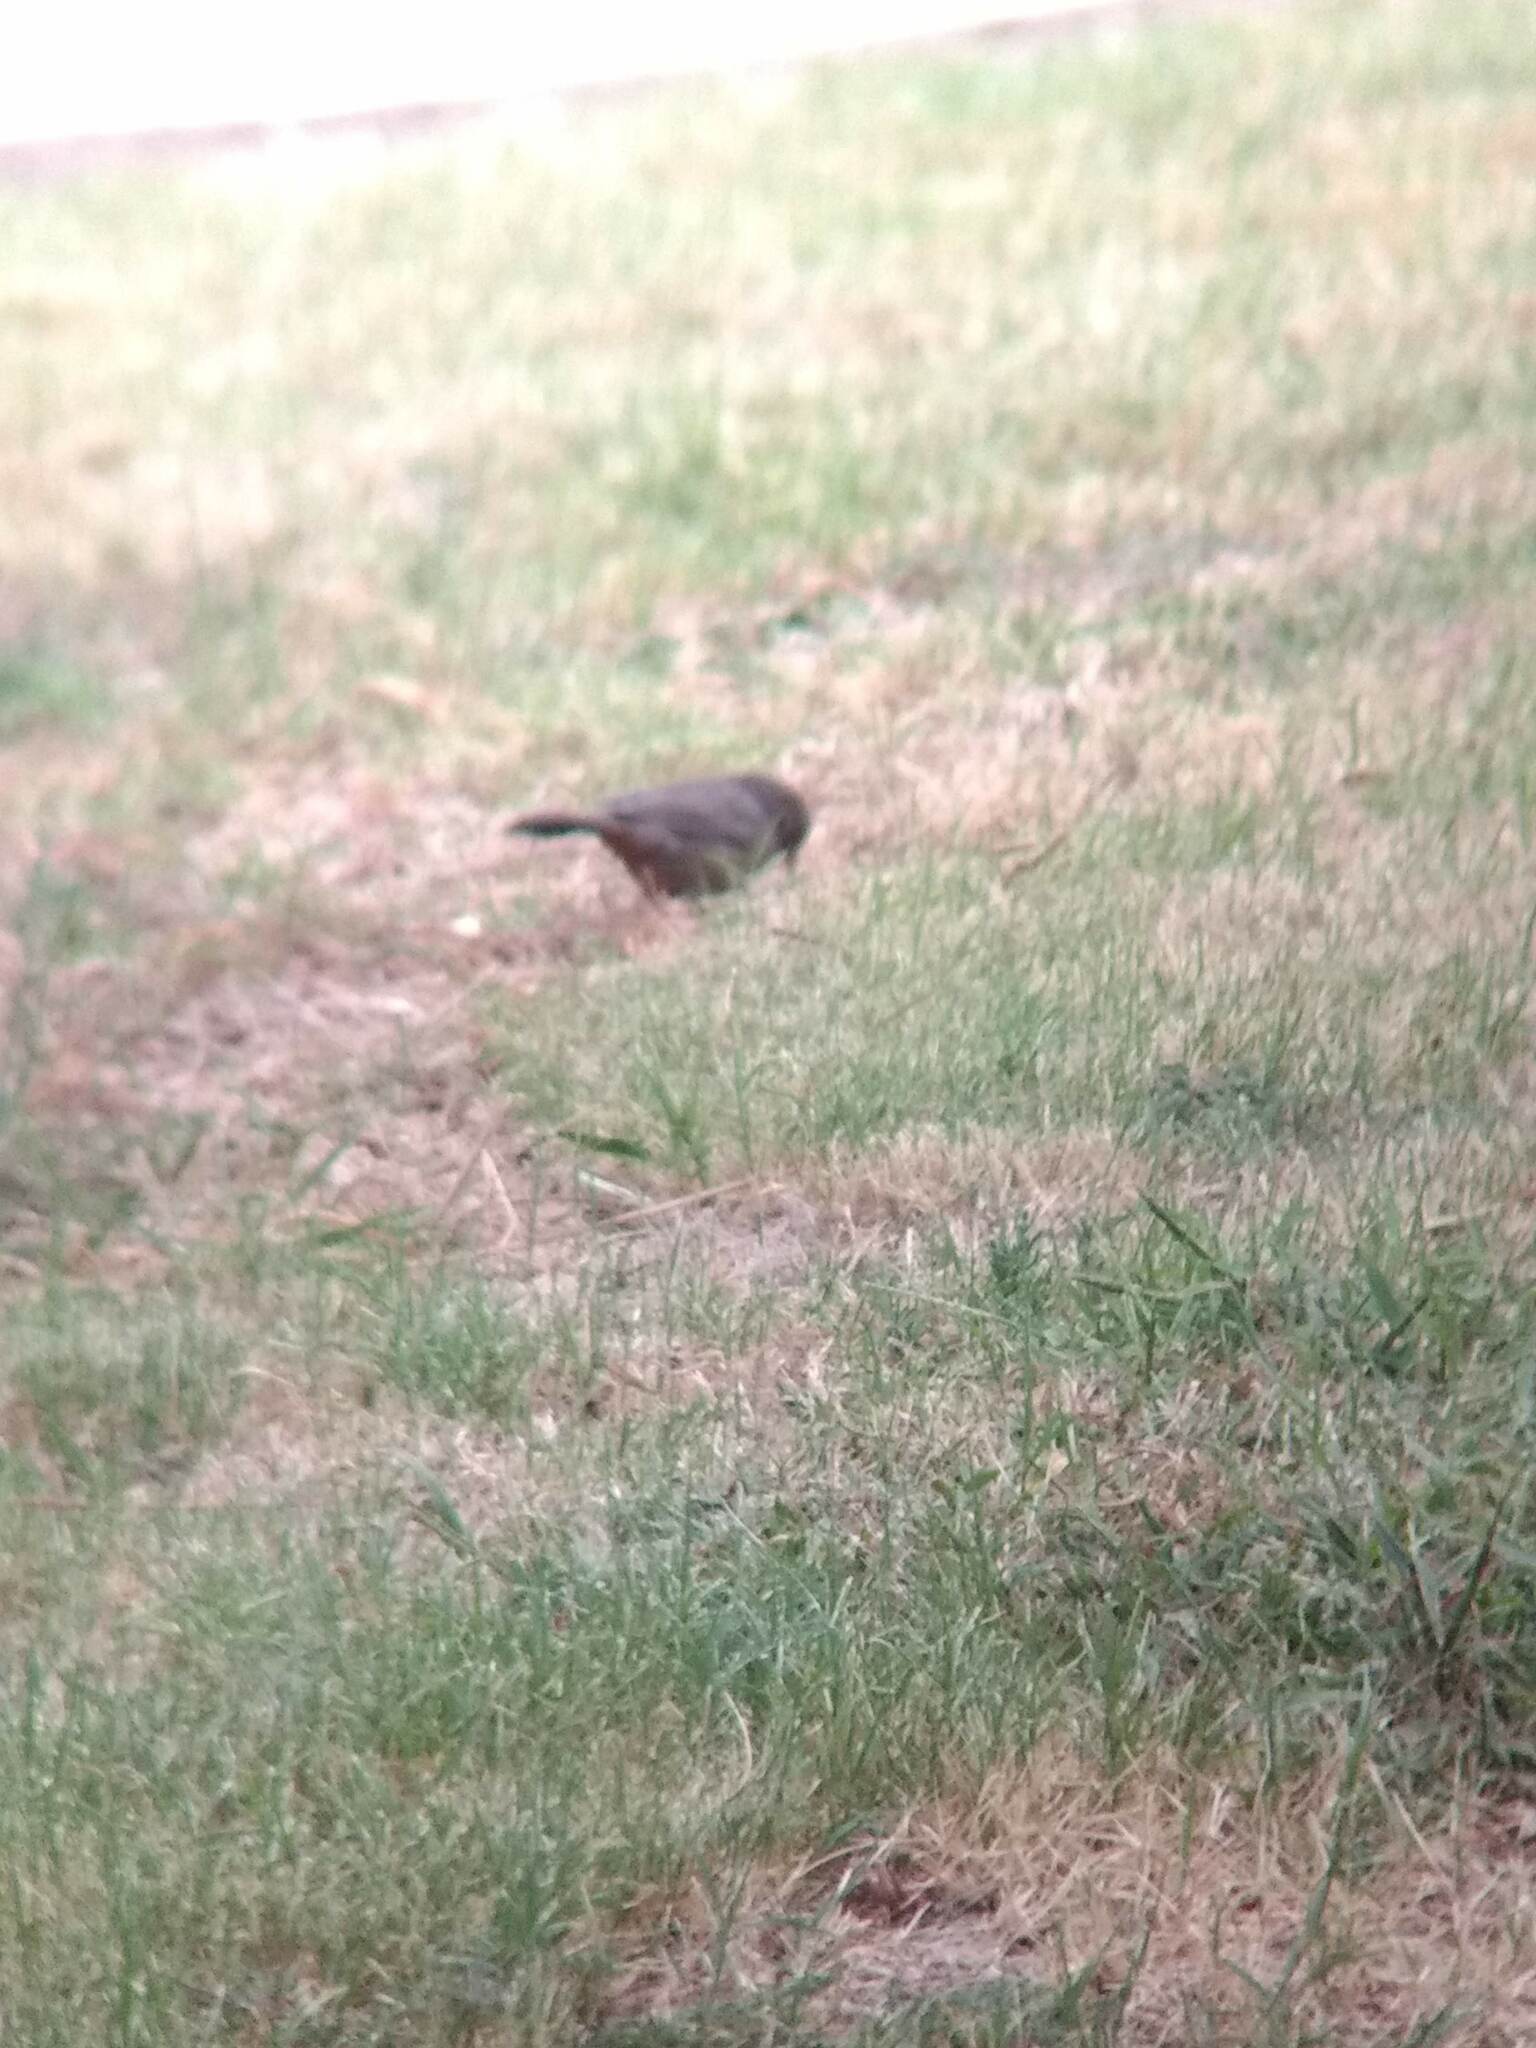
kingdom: Animalia
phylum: Chordata
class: Aves
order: Passeriformes
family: Passerellidae
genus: Melozone
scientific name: Melozone crissalis
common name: California towhee
